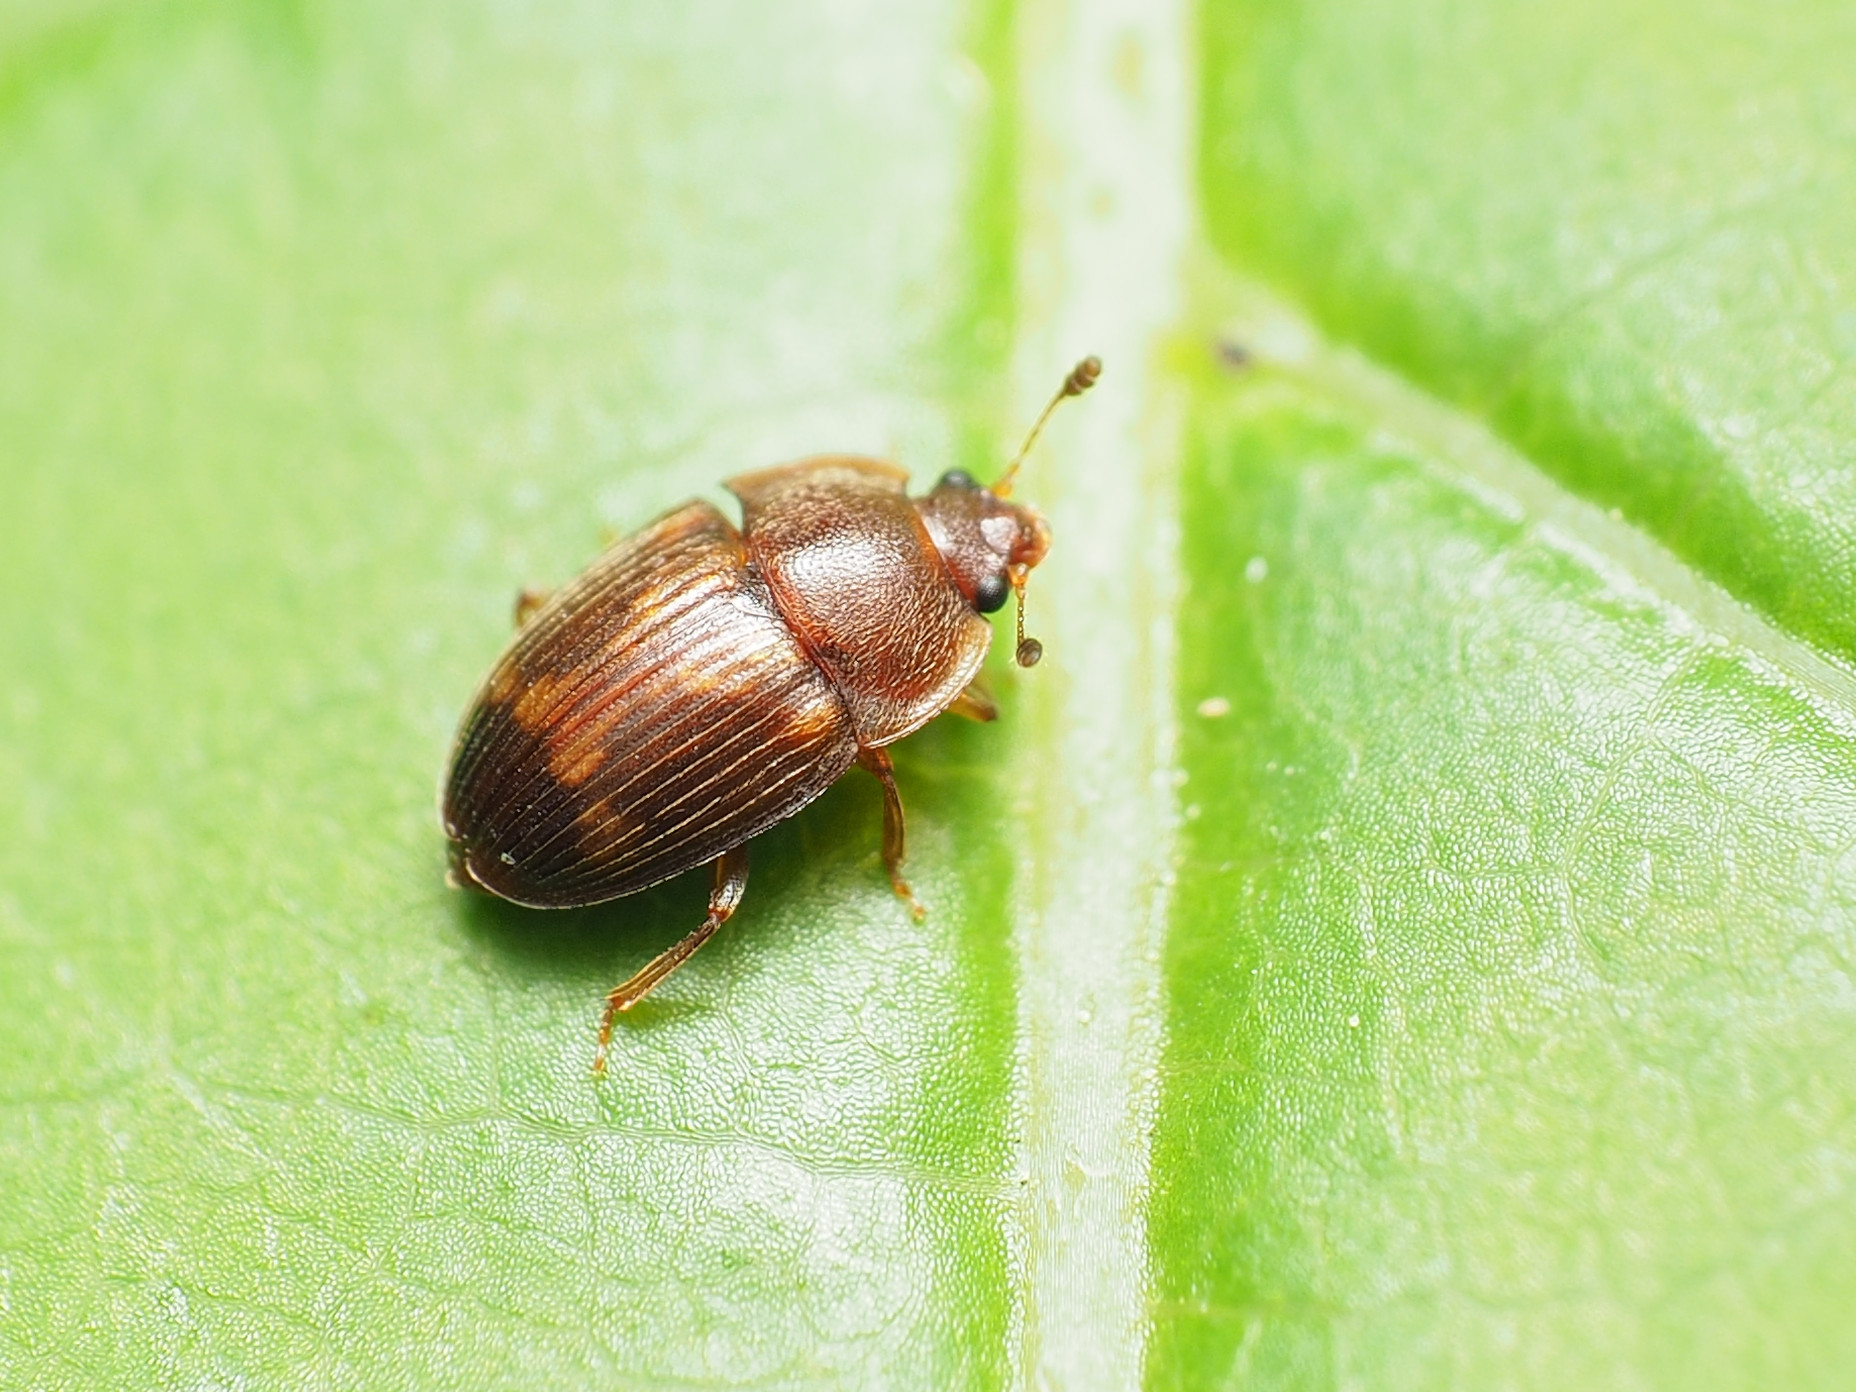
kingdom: Animalia
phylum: Arthropoda
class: Insecta
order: Coleoptera
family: Nitidulidae
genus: Stelidota
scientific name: Stelidota geminata
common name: Strawberry sap beetle
